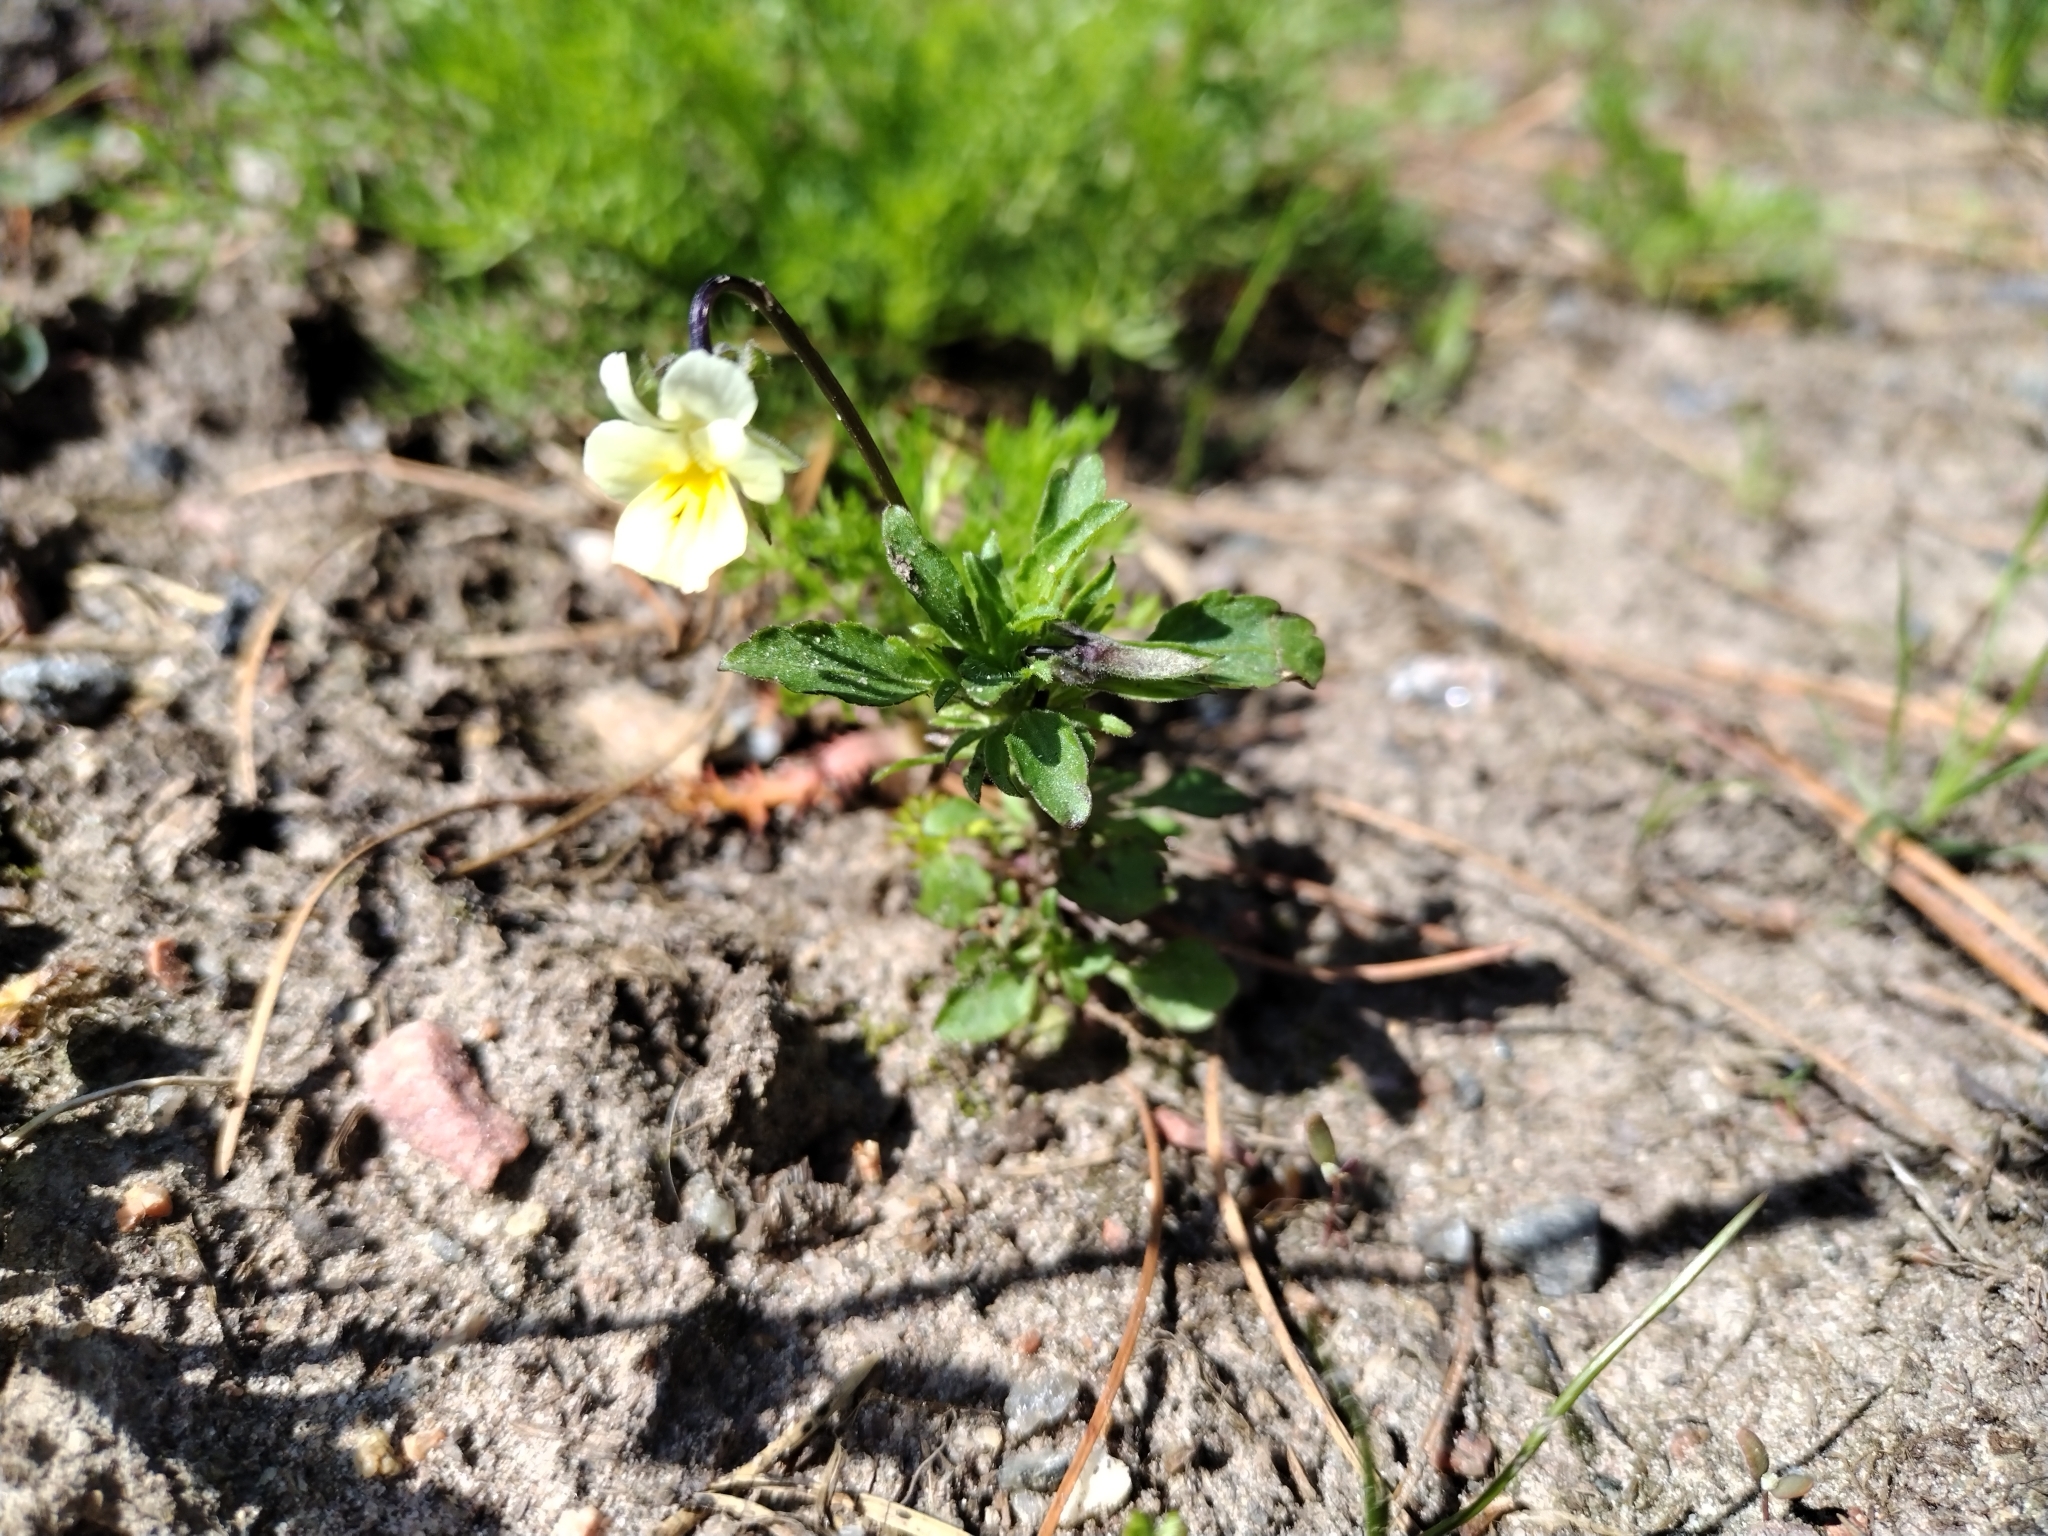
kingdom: Plantae
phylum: Tracheophyta
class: Magnoliopsida
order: Malpighiales
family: Violaceae
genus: Viola
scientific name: Viola arvensis
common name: Field pansy
